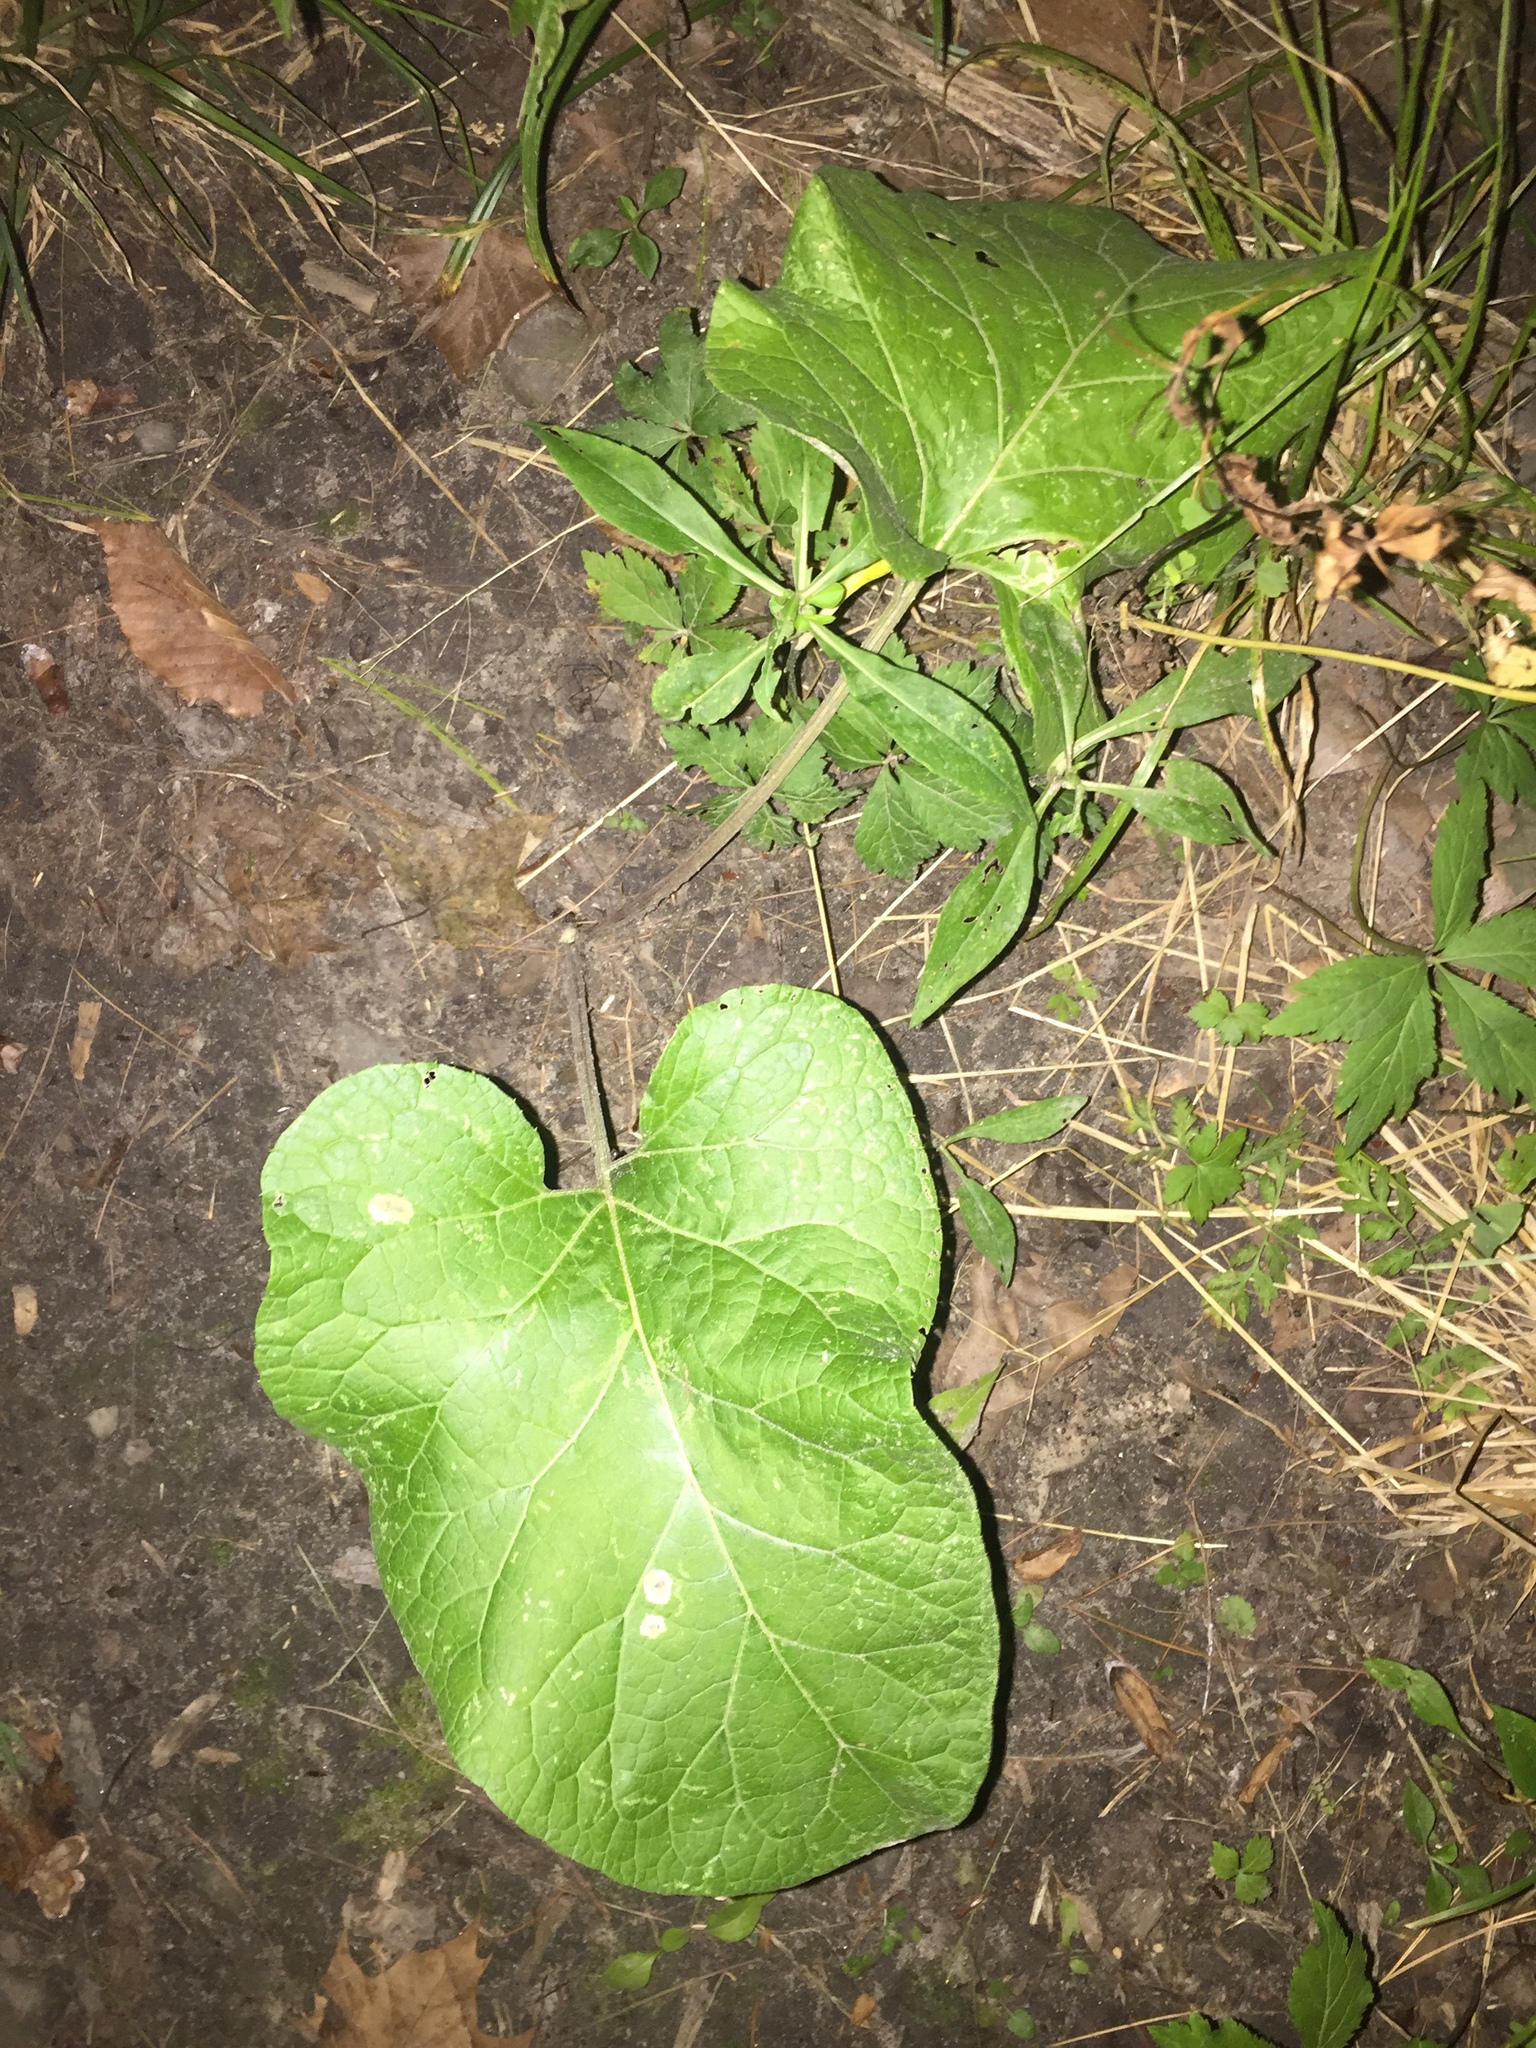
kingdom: Plantae
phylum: Tracheophyta
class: Magnoliopsida
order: Asterales
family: Asteraceae
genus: Arctium
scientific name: Arctium
